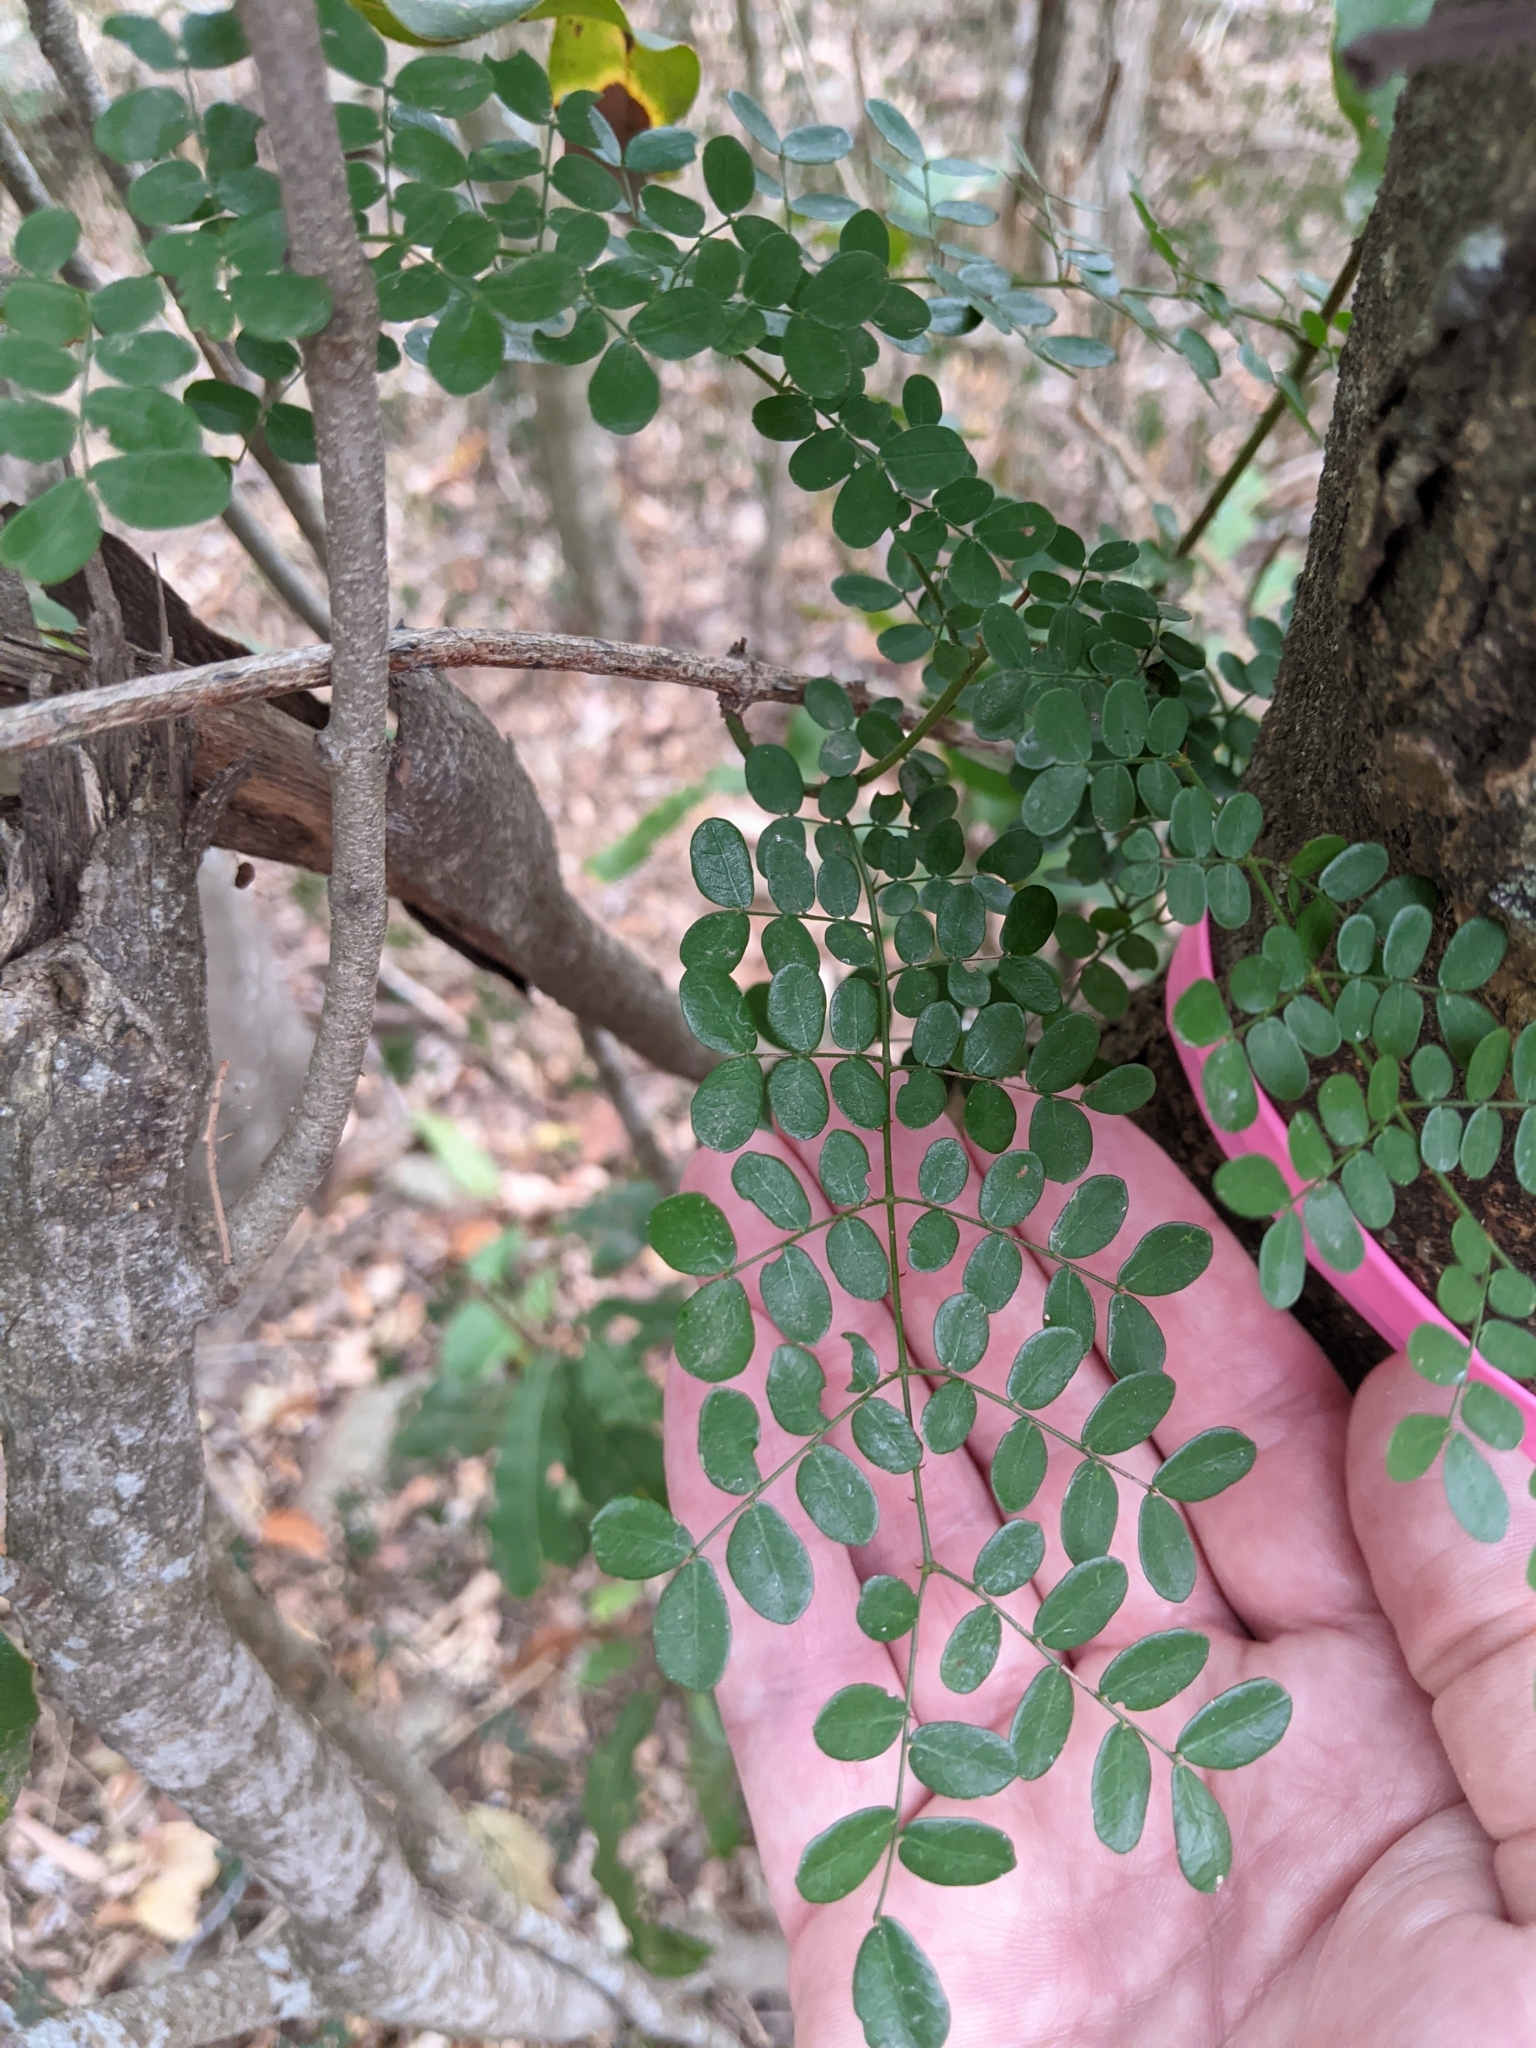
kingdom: Plantae
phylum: Tracheophyta
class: Magnoliopsida
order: Fabales
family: Fabaceae
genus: Mezoneuron
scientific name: Mezoneuron brachycarpum
